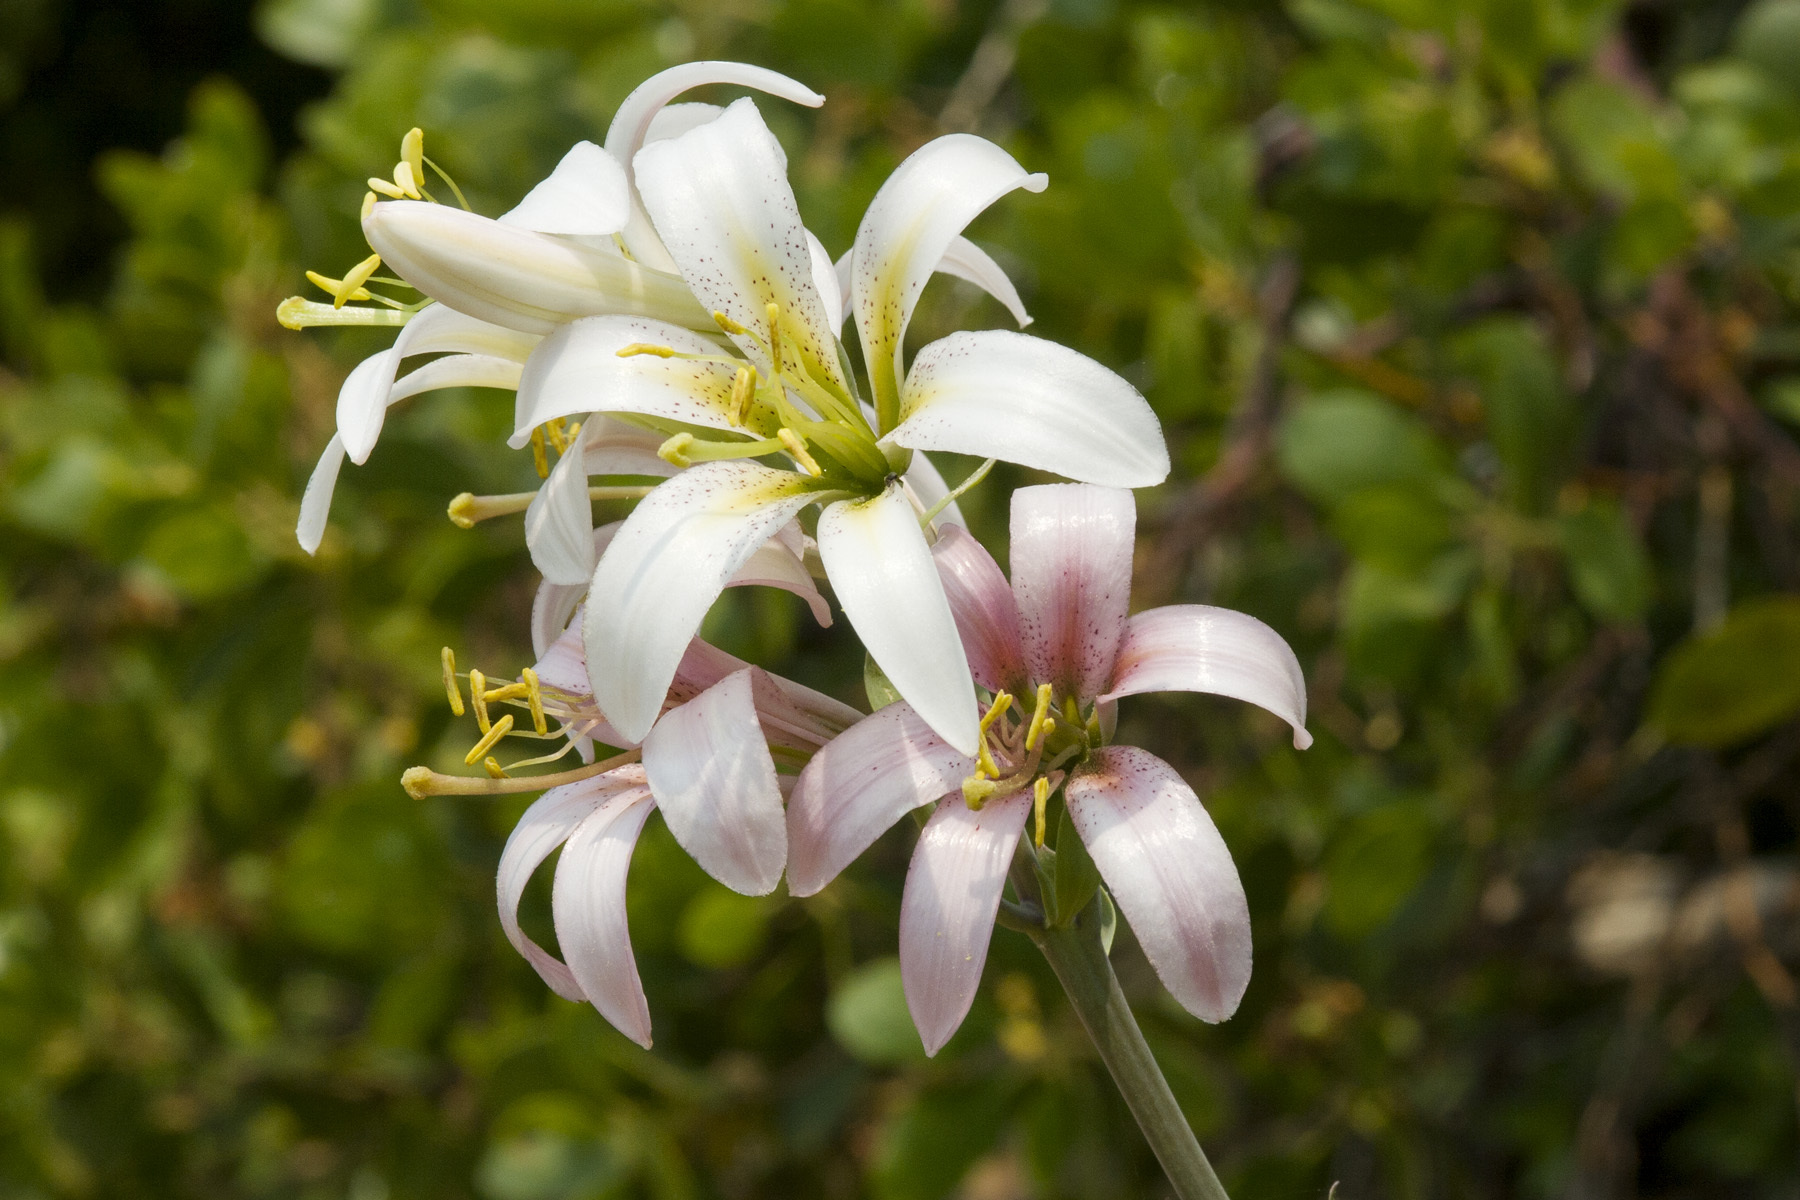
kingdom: Plantae
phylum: Tracheophyta
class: Liliopsida
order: Liliales
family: Liliaceae
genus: Lilium
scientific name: Lilium washingtonianum
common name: Washington lily
